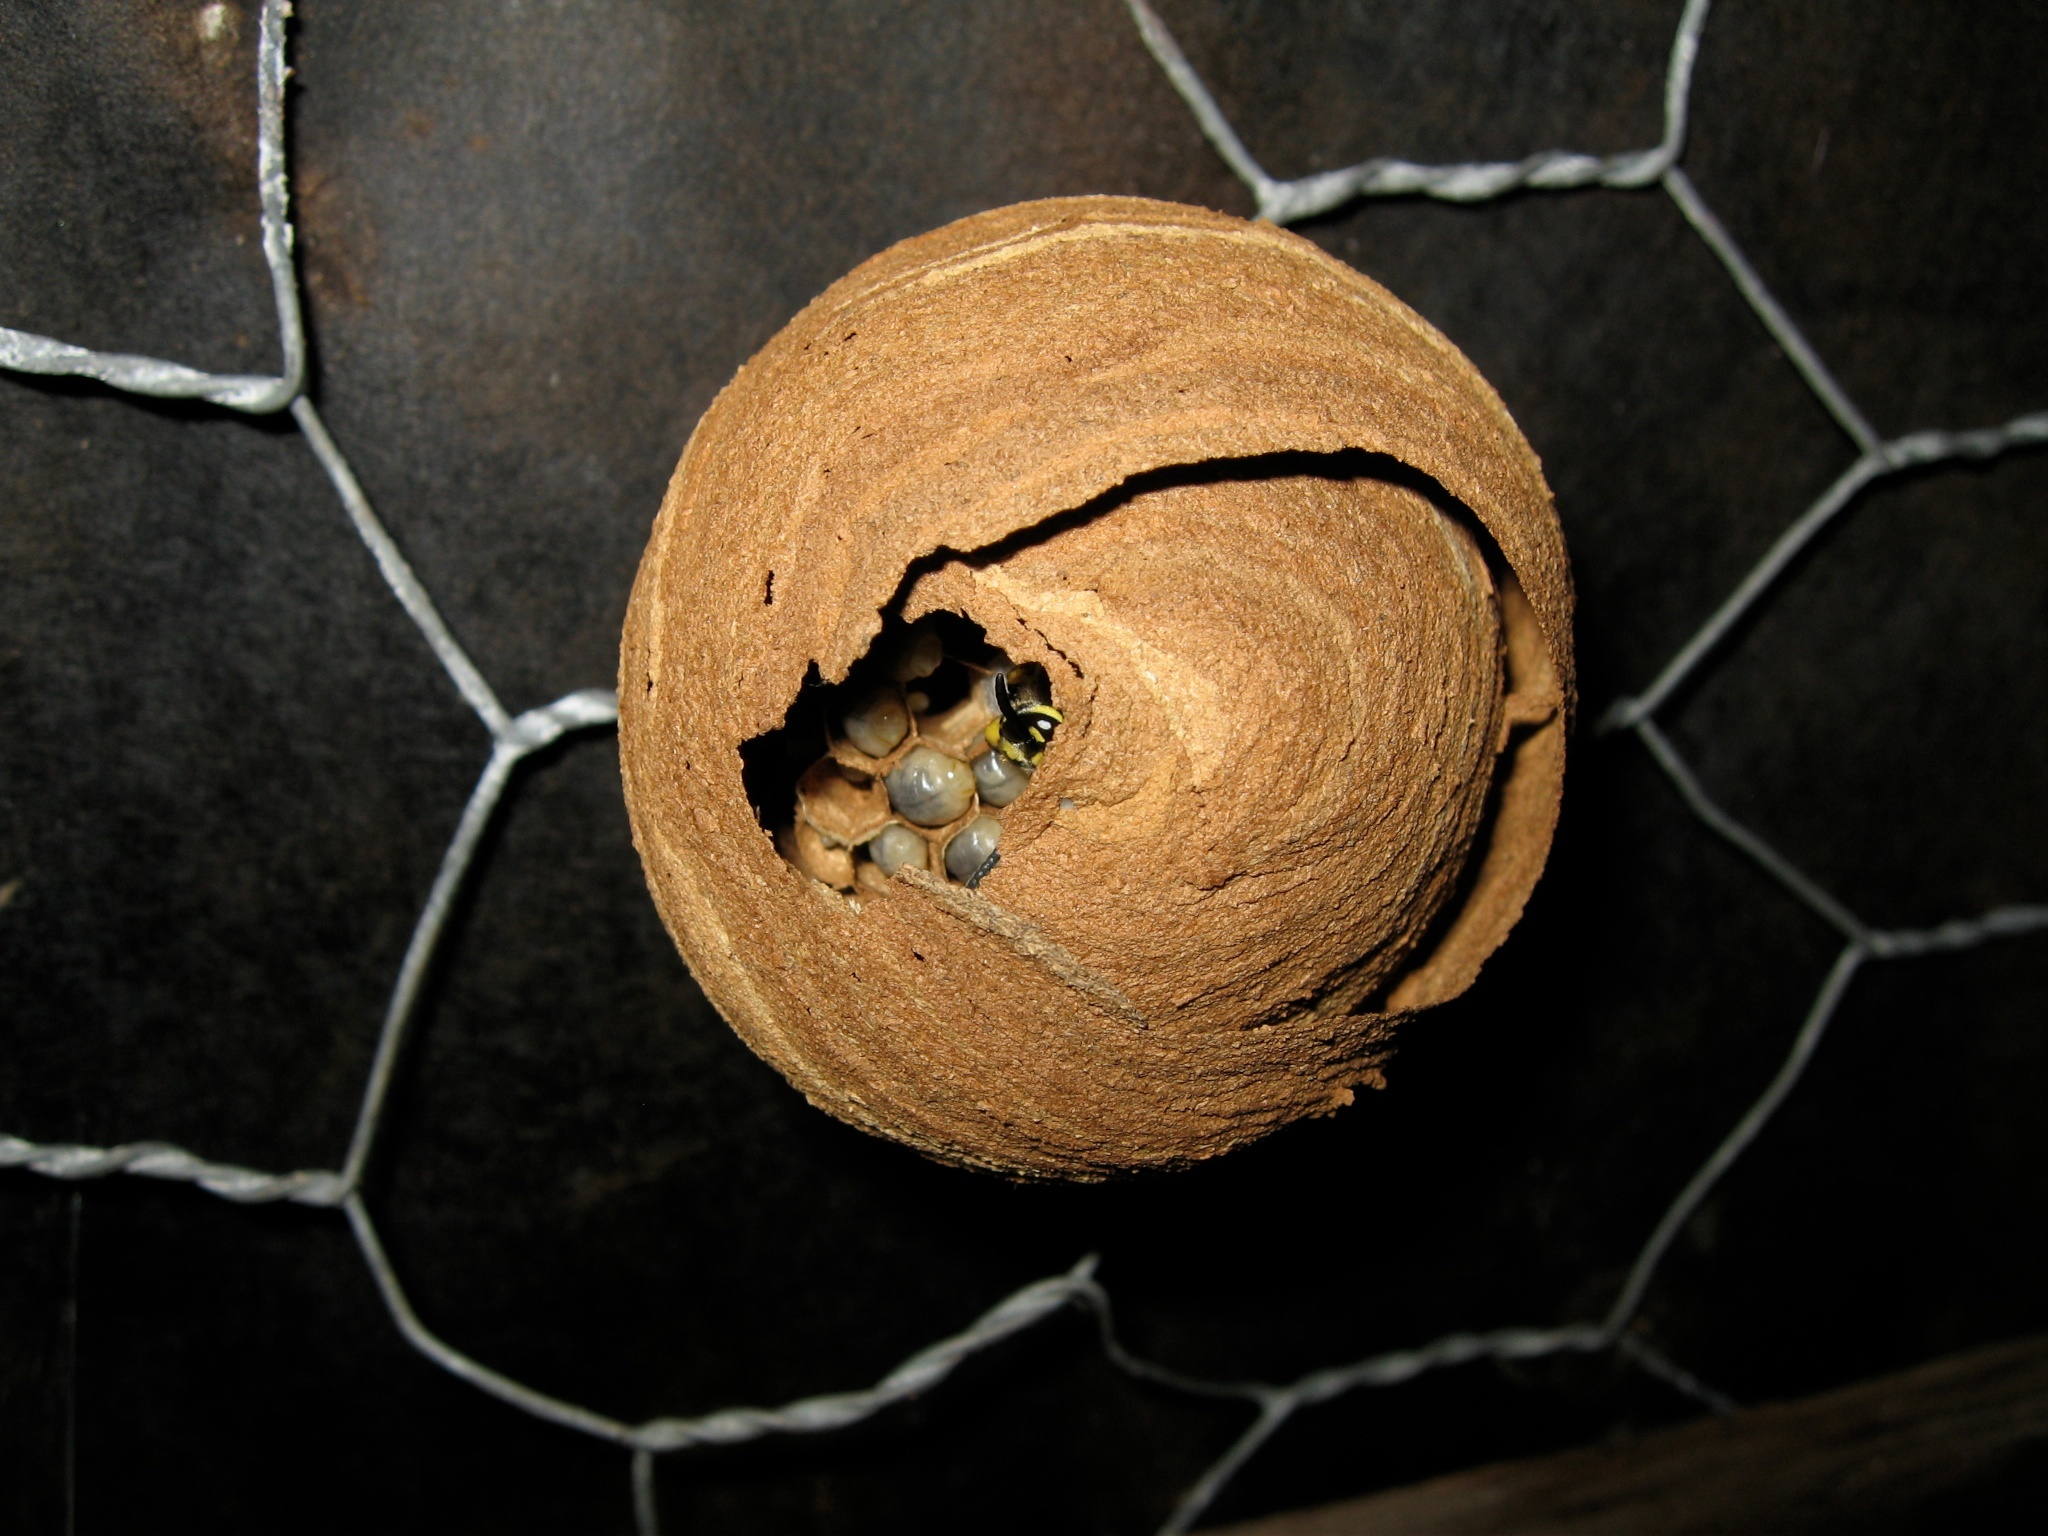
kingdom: Animalia
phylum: Arthropoda
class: Insecta
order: Hymenoptera
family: Vespidae
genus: Vespula
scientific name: Vespula vulgaris
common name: Common wasp
